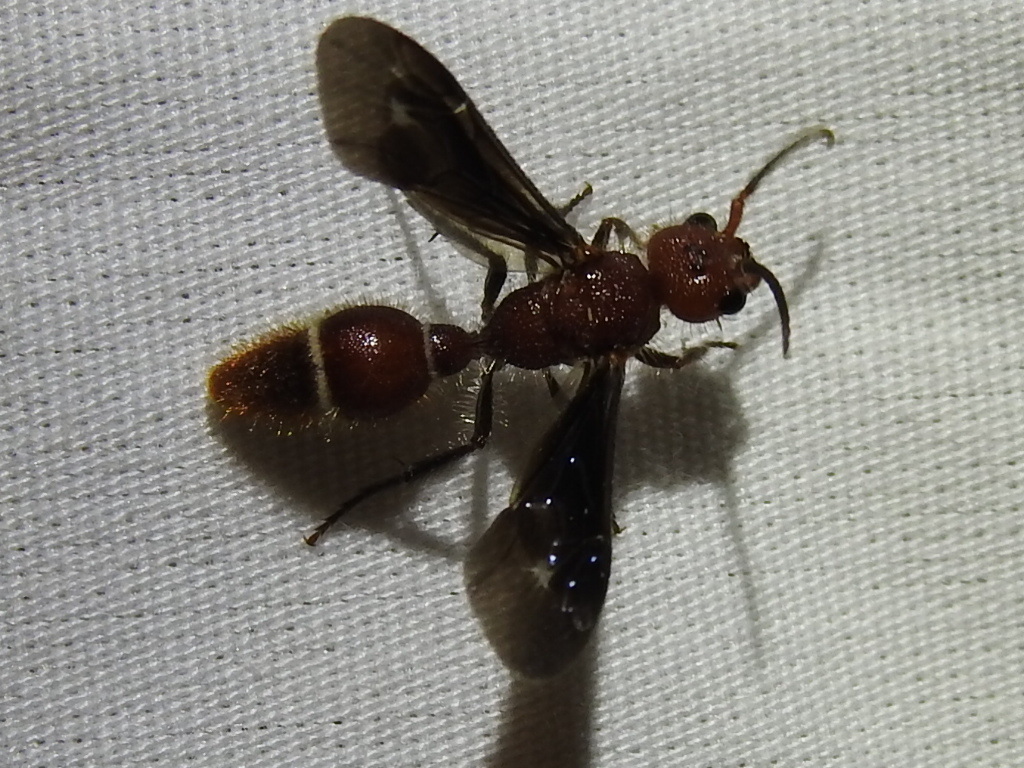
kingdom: Animalia
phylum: Arthropoda
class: Insecta
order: Hymenoptera
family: Mutillidae
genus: Sphaeropthalma
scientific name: Sphaeropthalma
